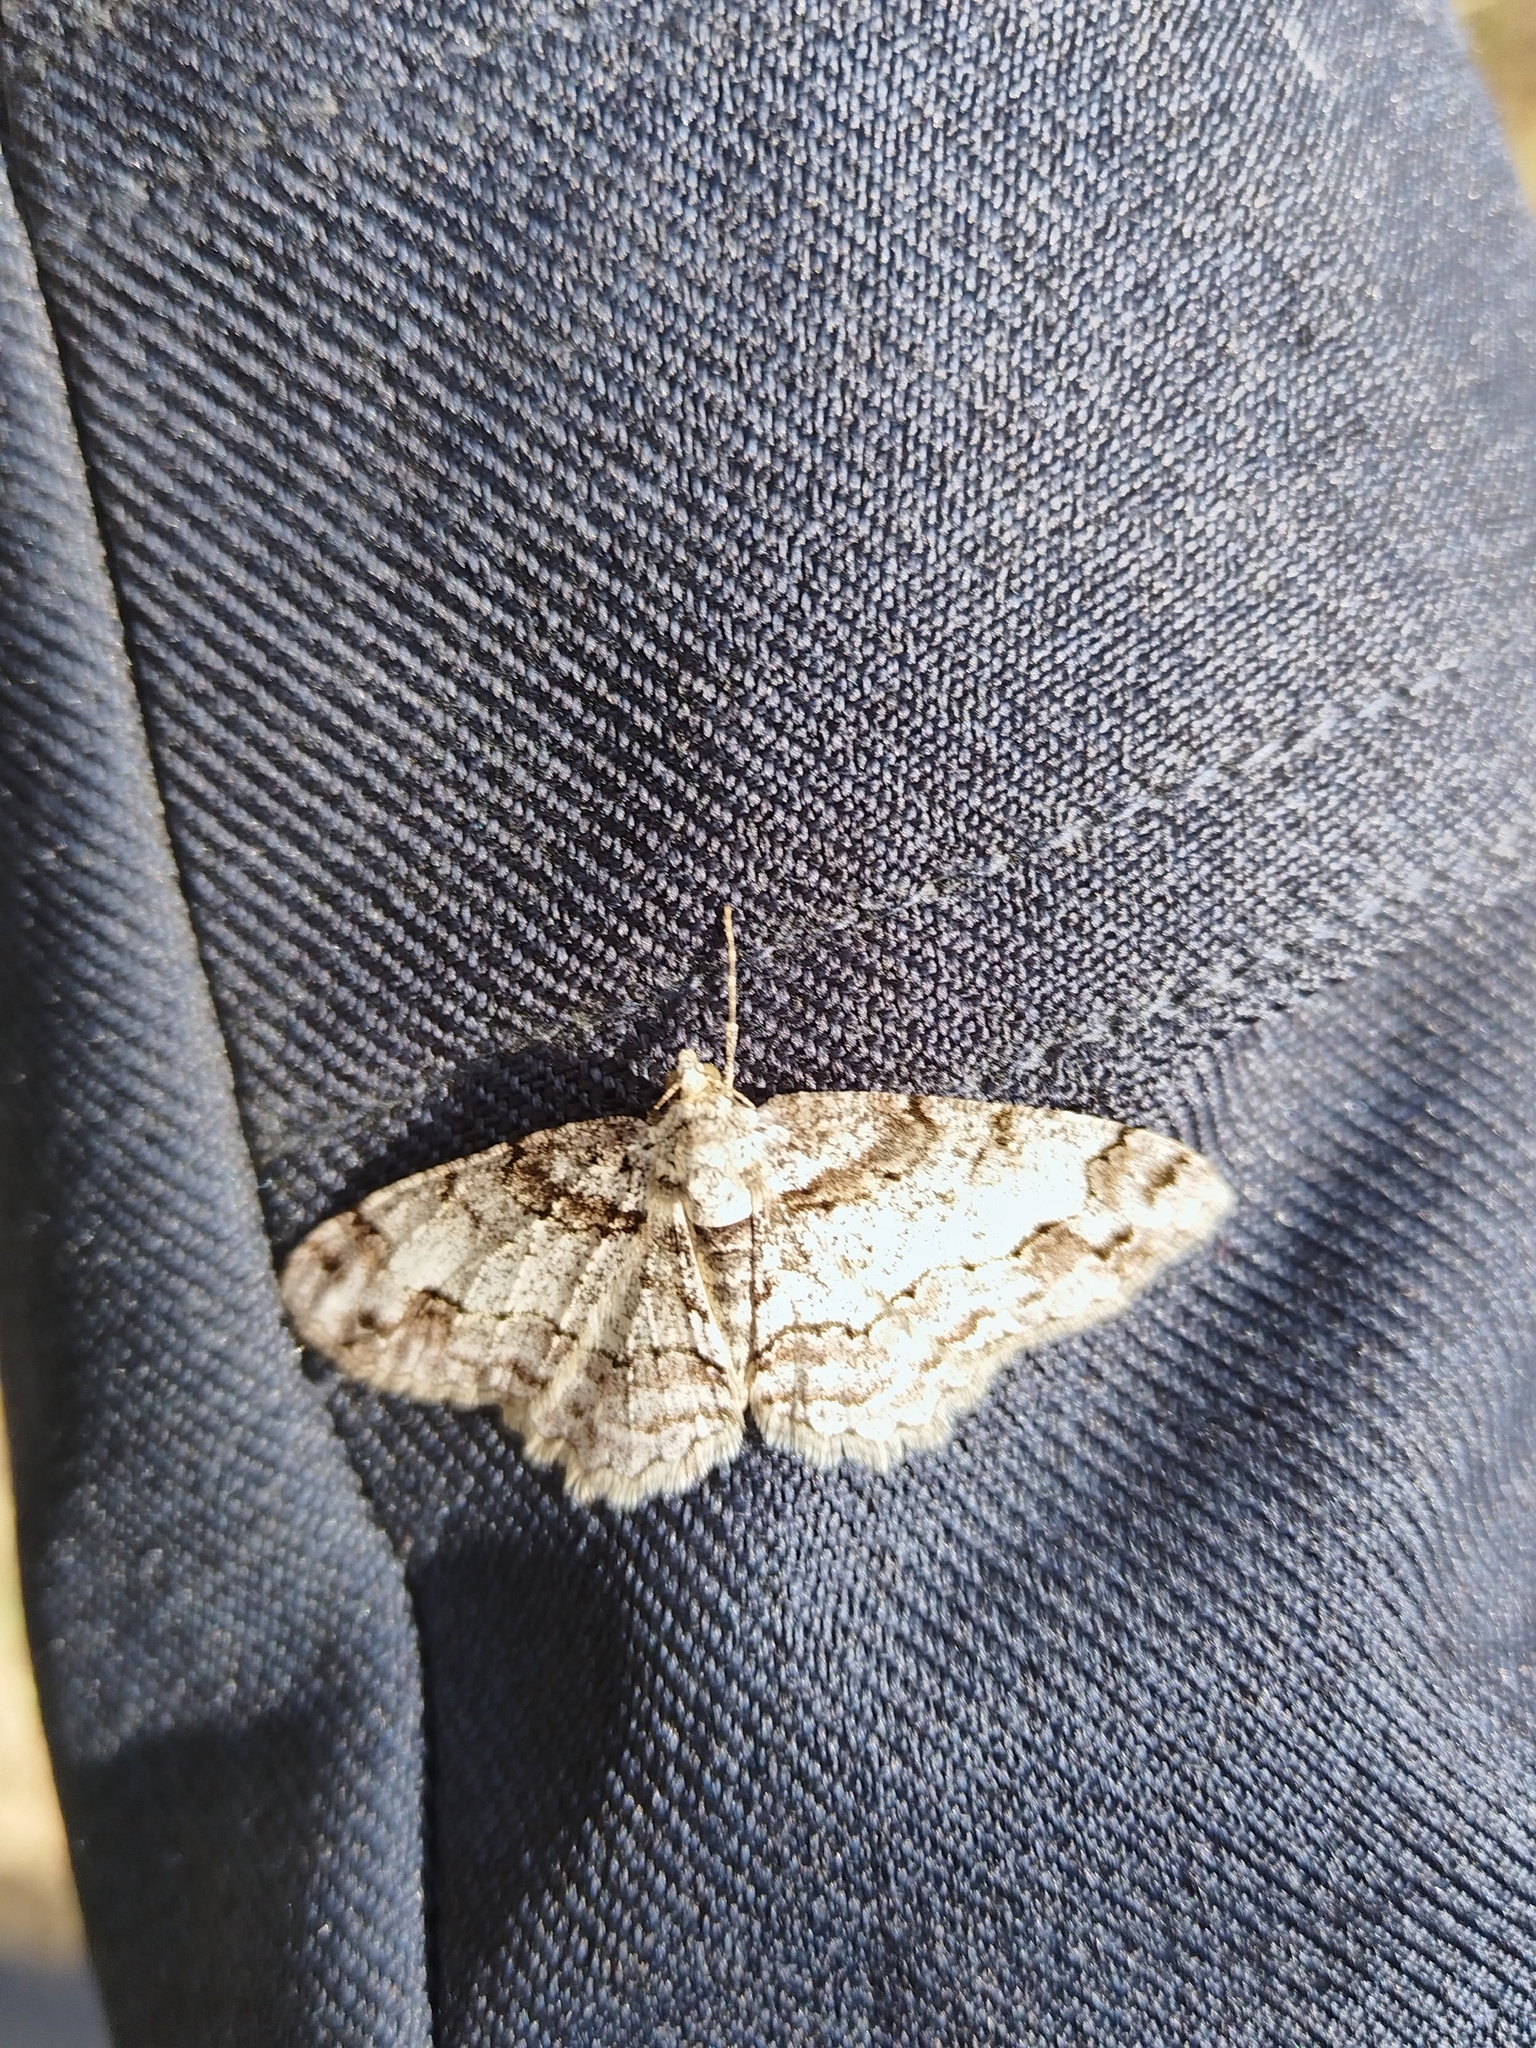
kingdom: Animalia
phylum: Arthropoda
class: Insecta
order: Lepidoptera
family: Geometridae
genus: Paradarisa
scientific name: Paradarisa consonaria
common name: Square spot
